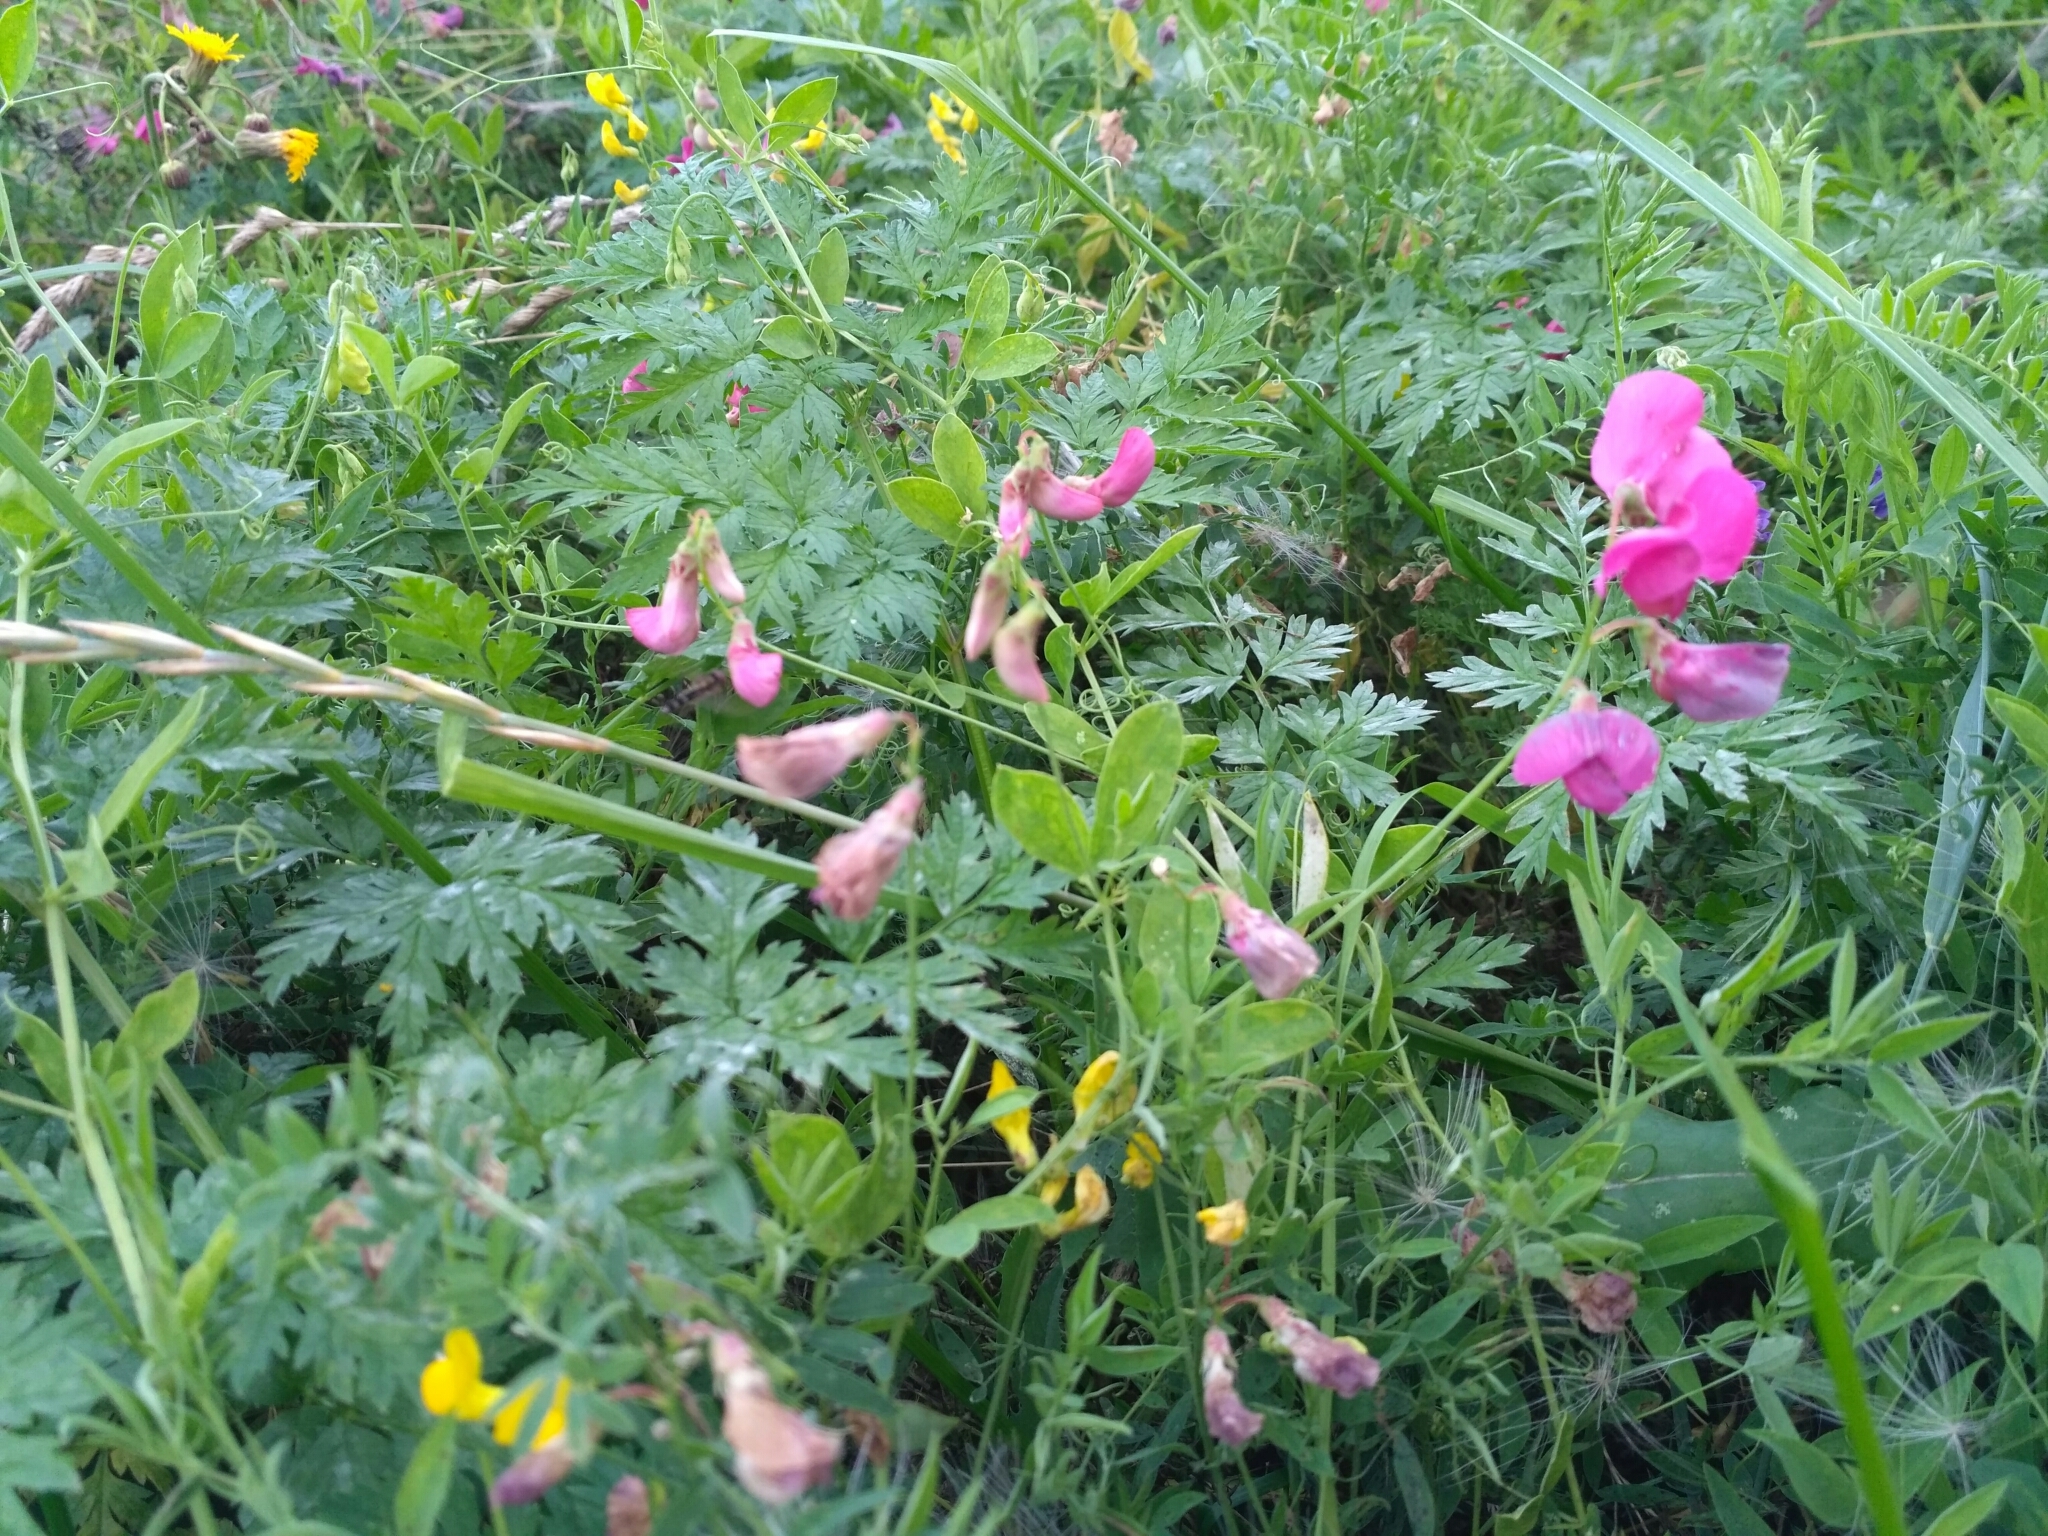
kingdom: Plantae
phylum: Tracheophyta
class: Magnoliopsida
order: Fabales
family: Fabaceae
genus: Lathyrus
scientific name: Lathyrus tuberosus
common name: Tuberous pea
